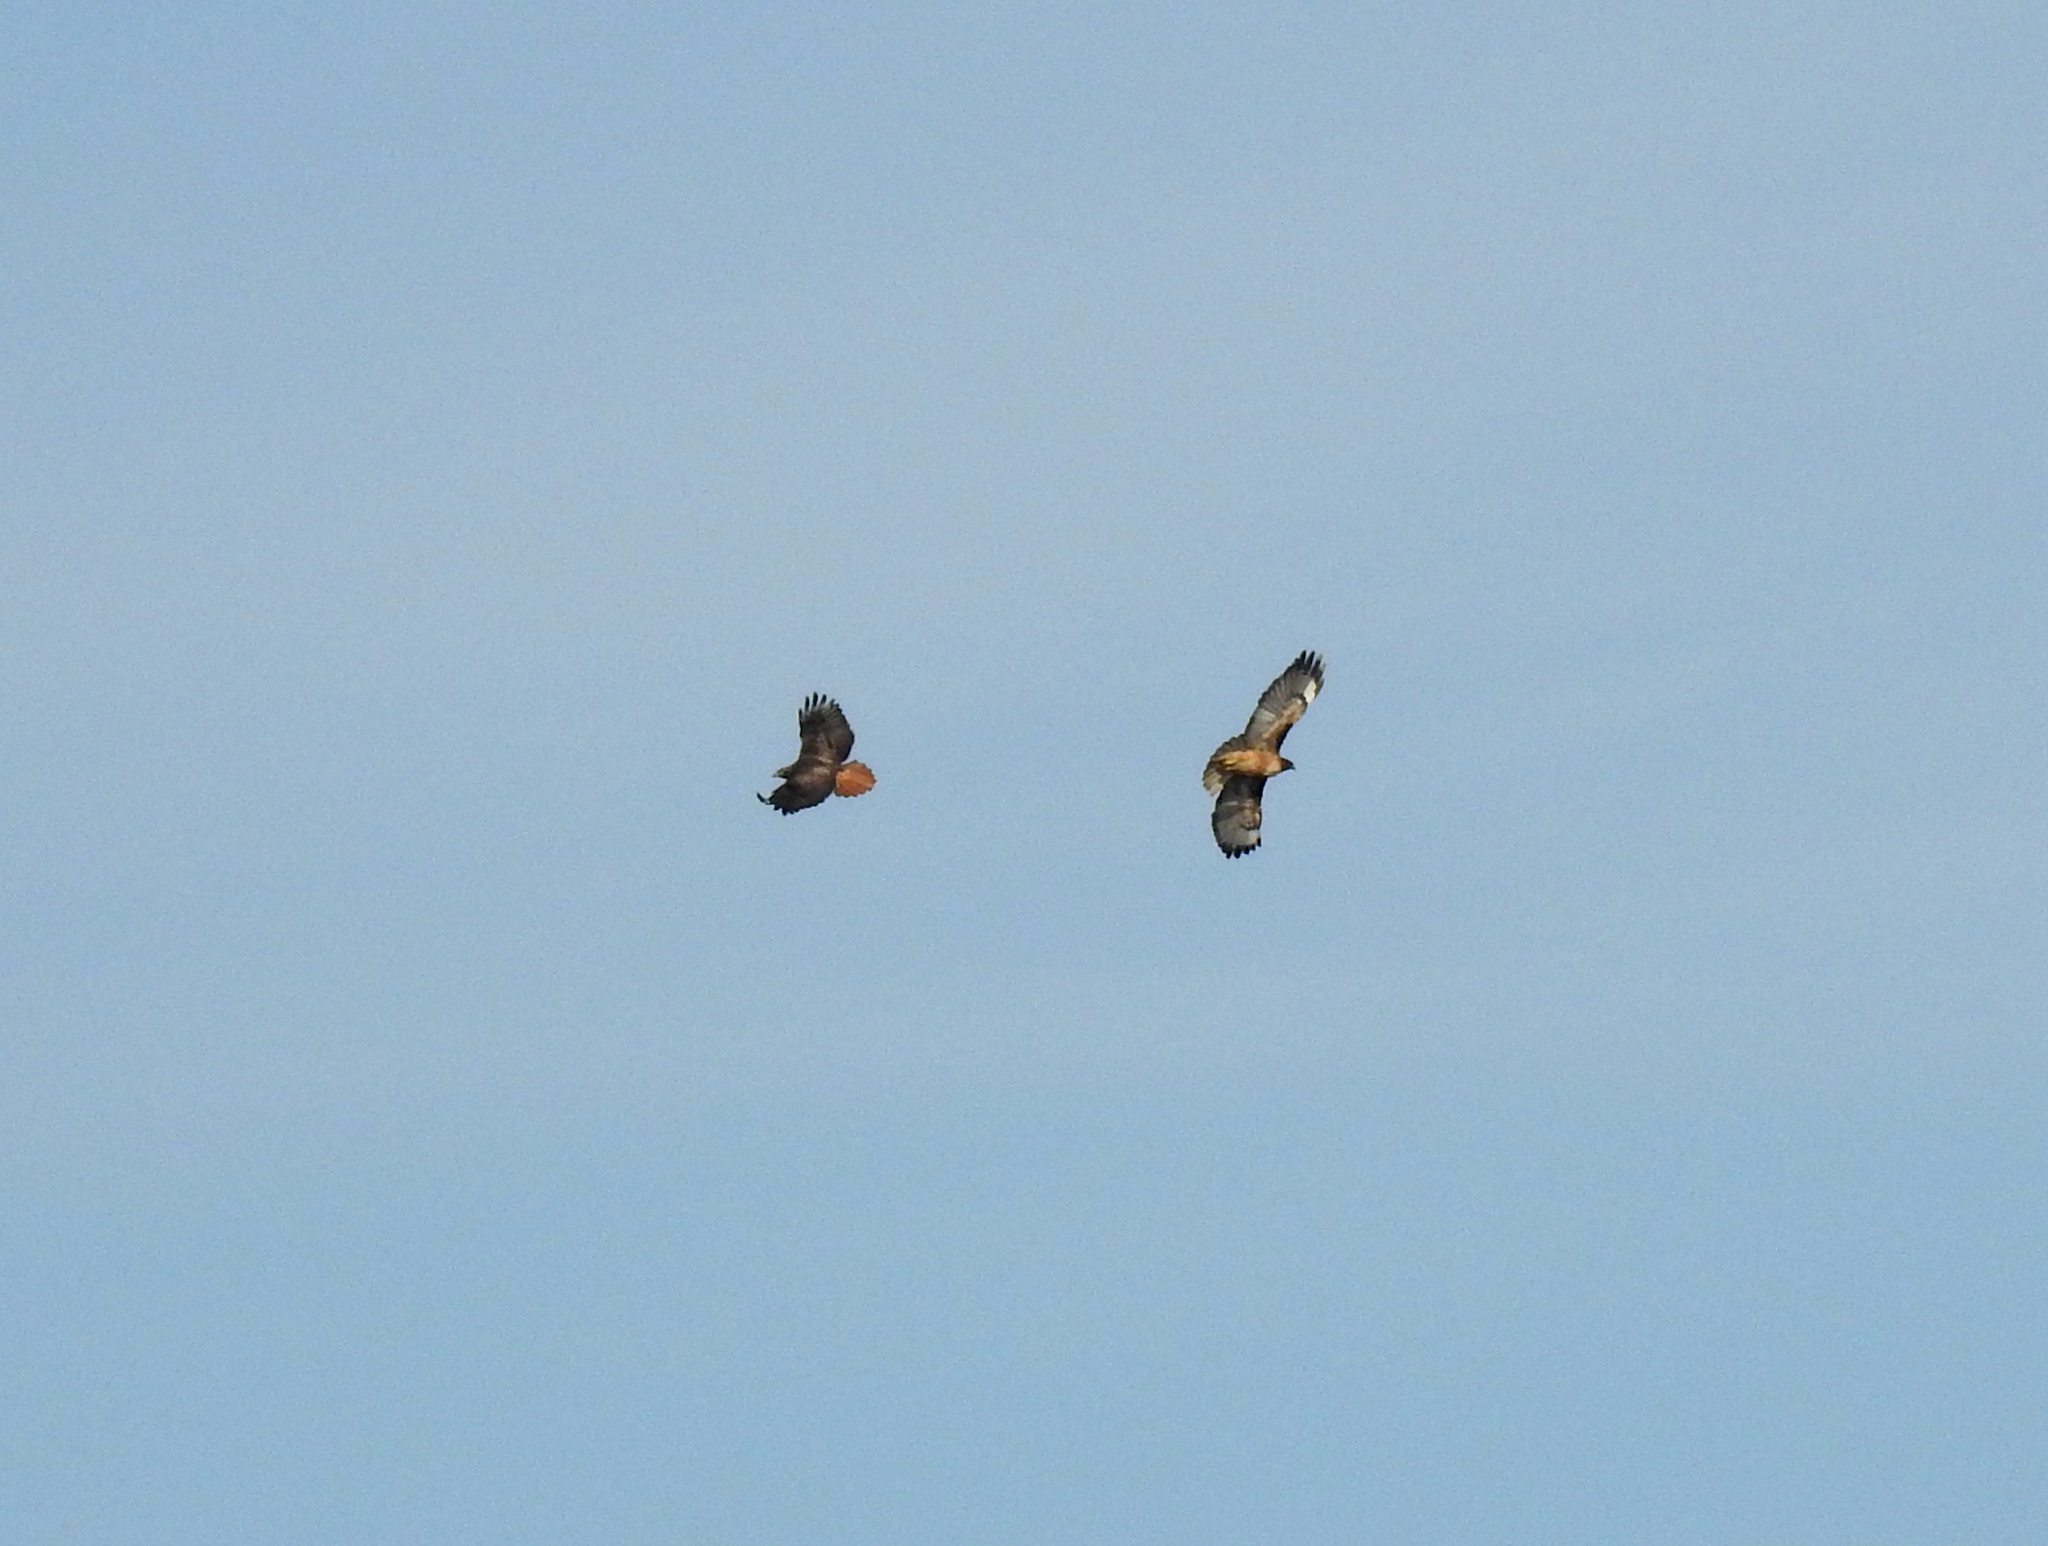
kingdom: Animalia
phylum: Chordata
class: Aves
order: Accipitriformes
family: Accipitridae
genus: Buteo
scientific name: Buteo jamaicensis
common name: Red-tailed hawk
